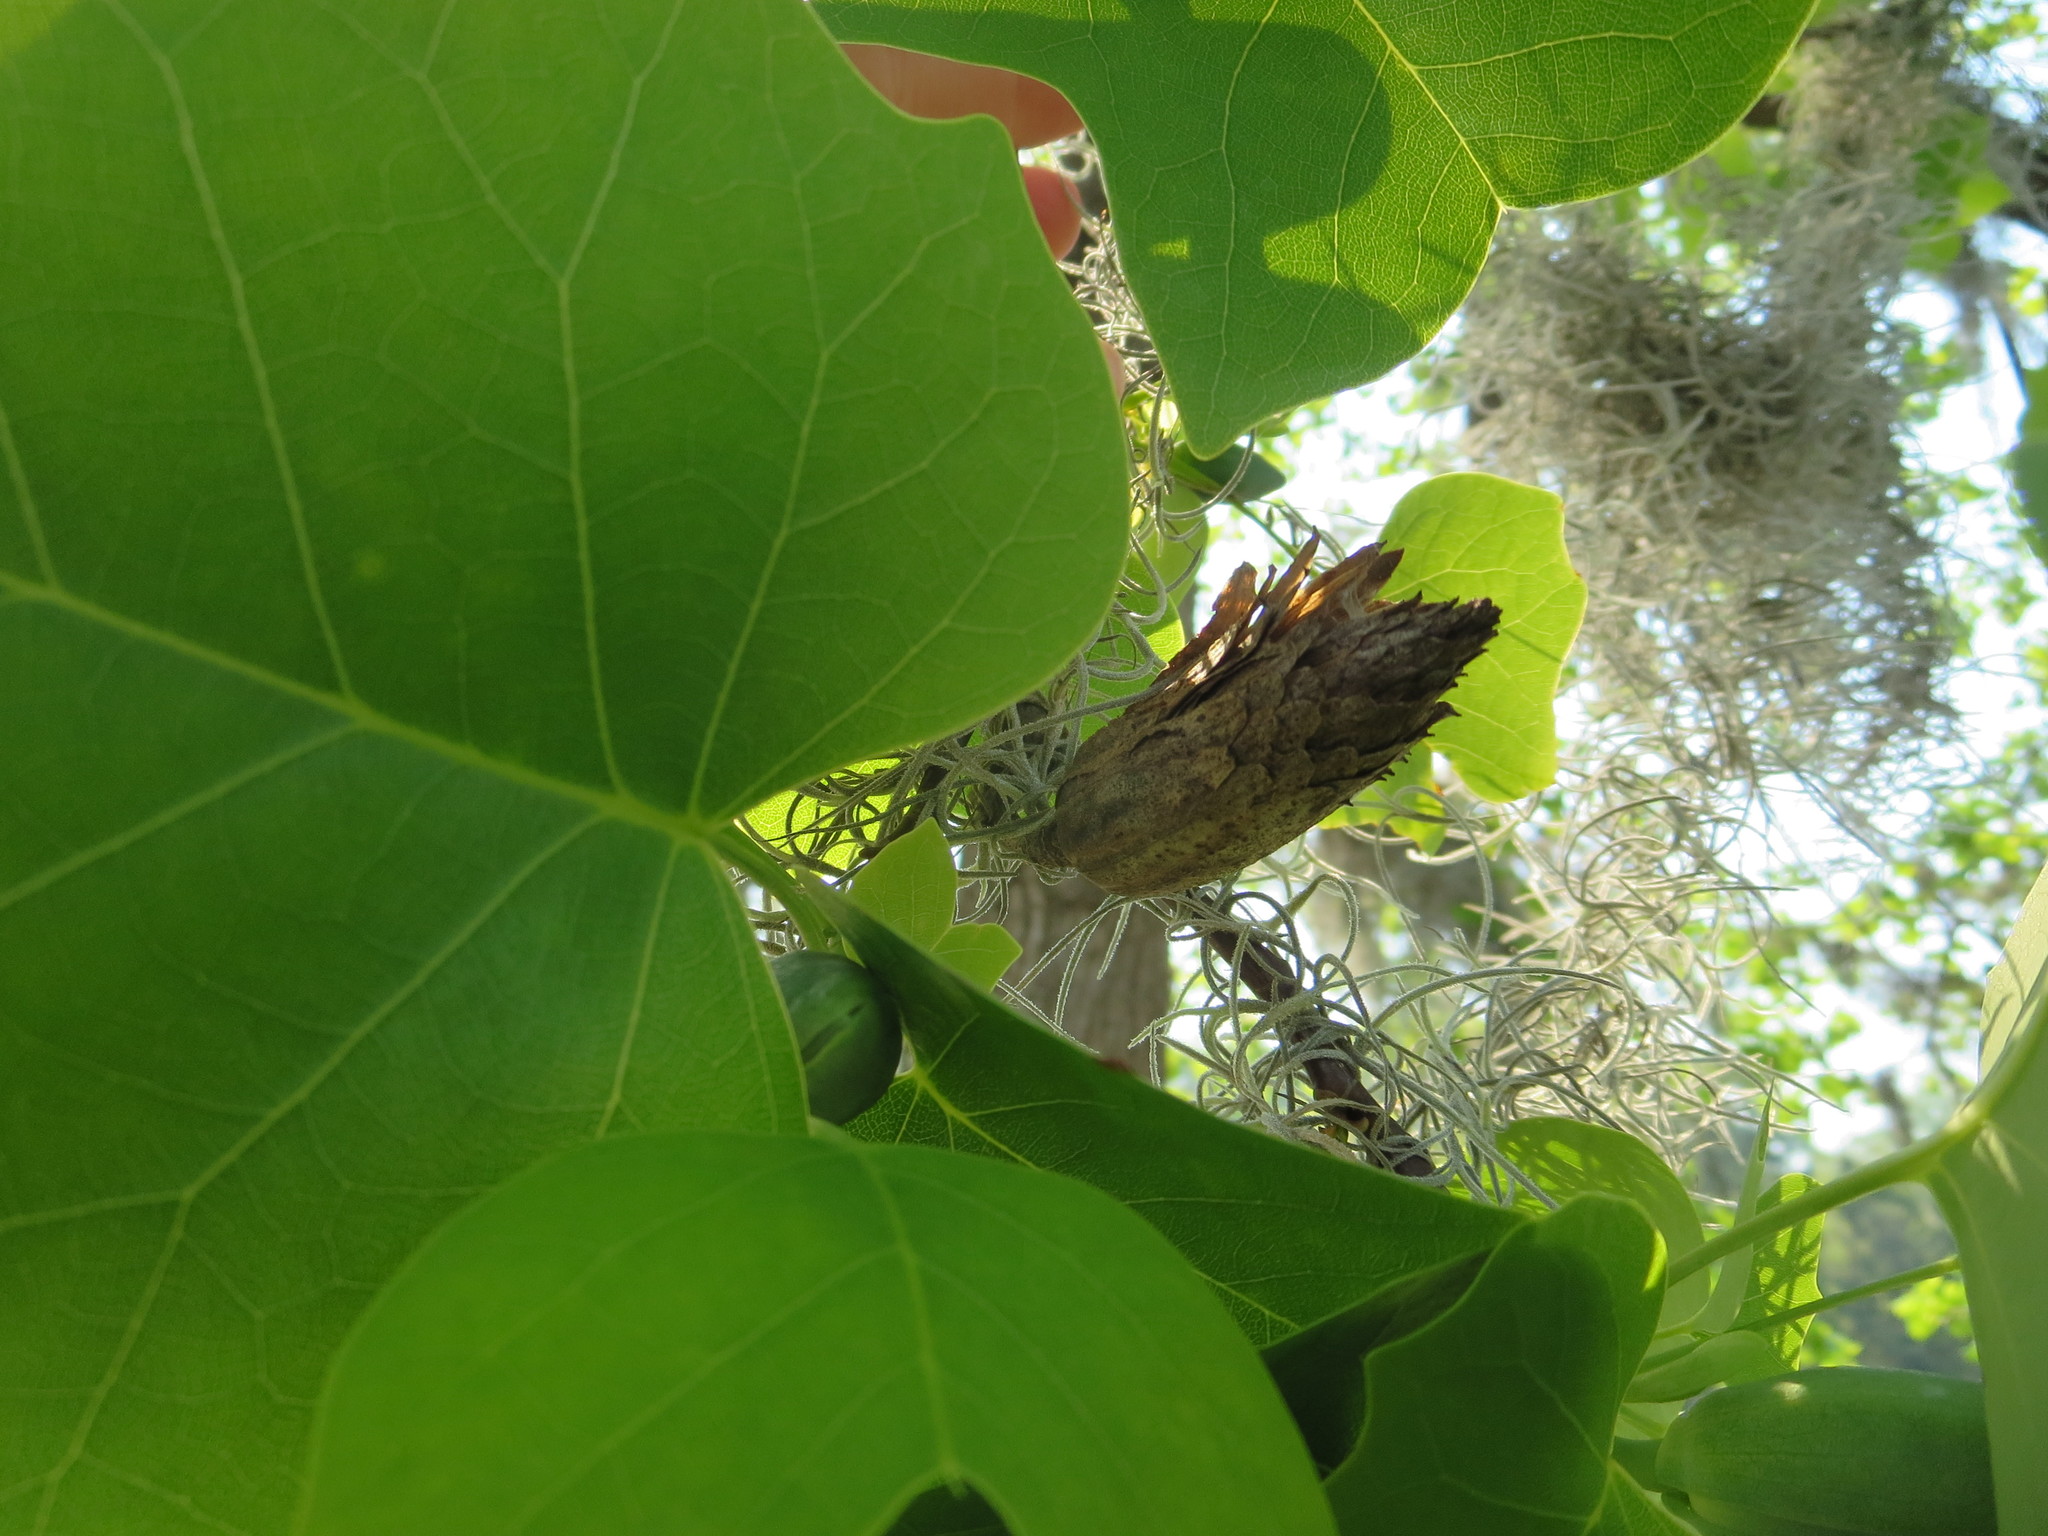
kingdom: Plantae
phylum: Tracheophyta
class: Magnoliopsida
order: Magnoliales
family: Magnoliaceae
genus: Liriodendron
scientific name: Liriodendron tulipifera
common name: Tulip tree
